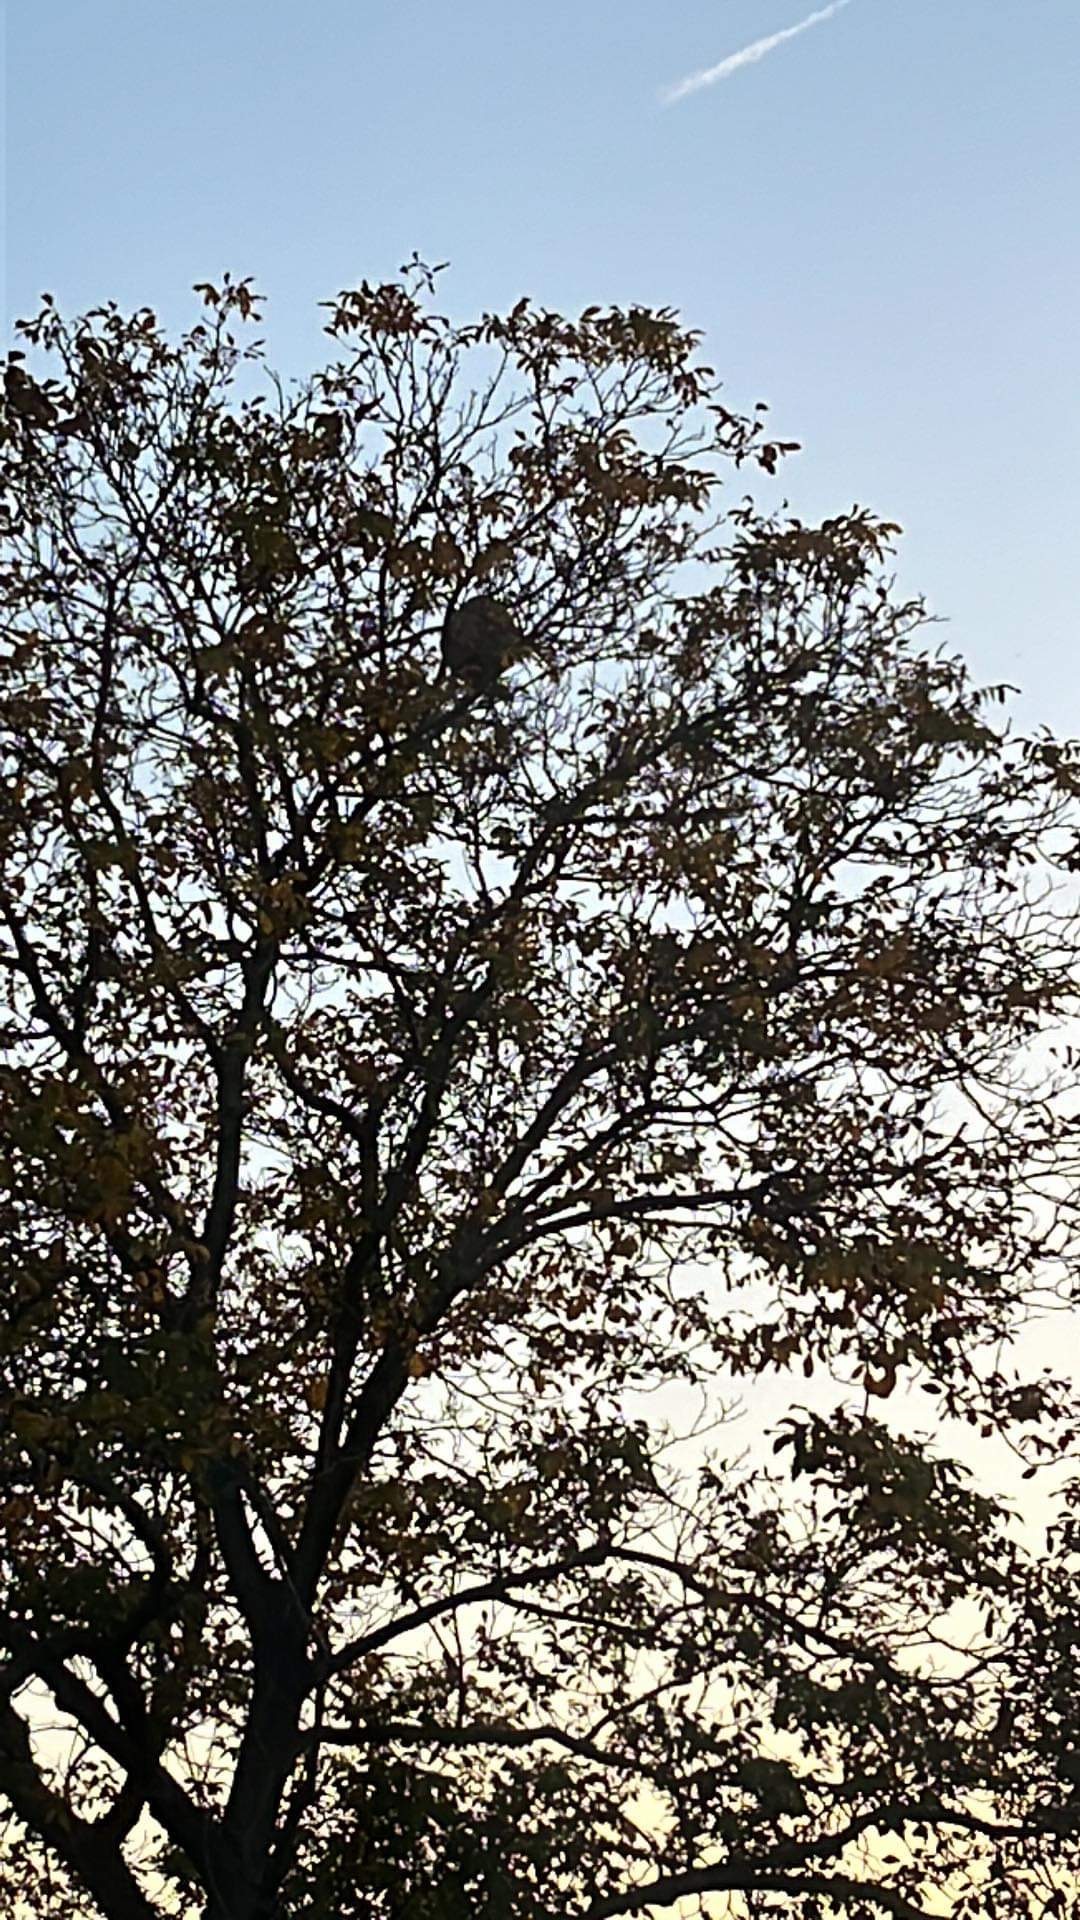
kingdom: Animalia
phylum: Arthropoda
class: Insecta
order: Hymenoptera
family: Vespidae
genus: Vespa
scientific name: Vespa velutina
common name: Asian hornet
